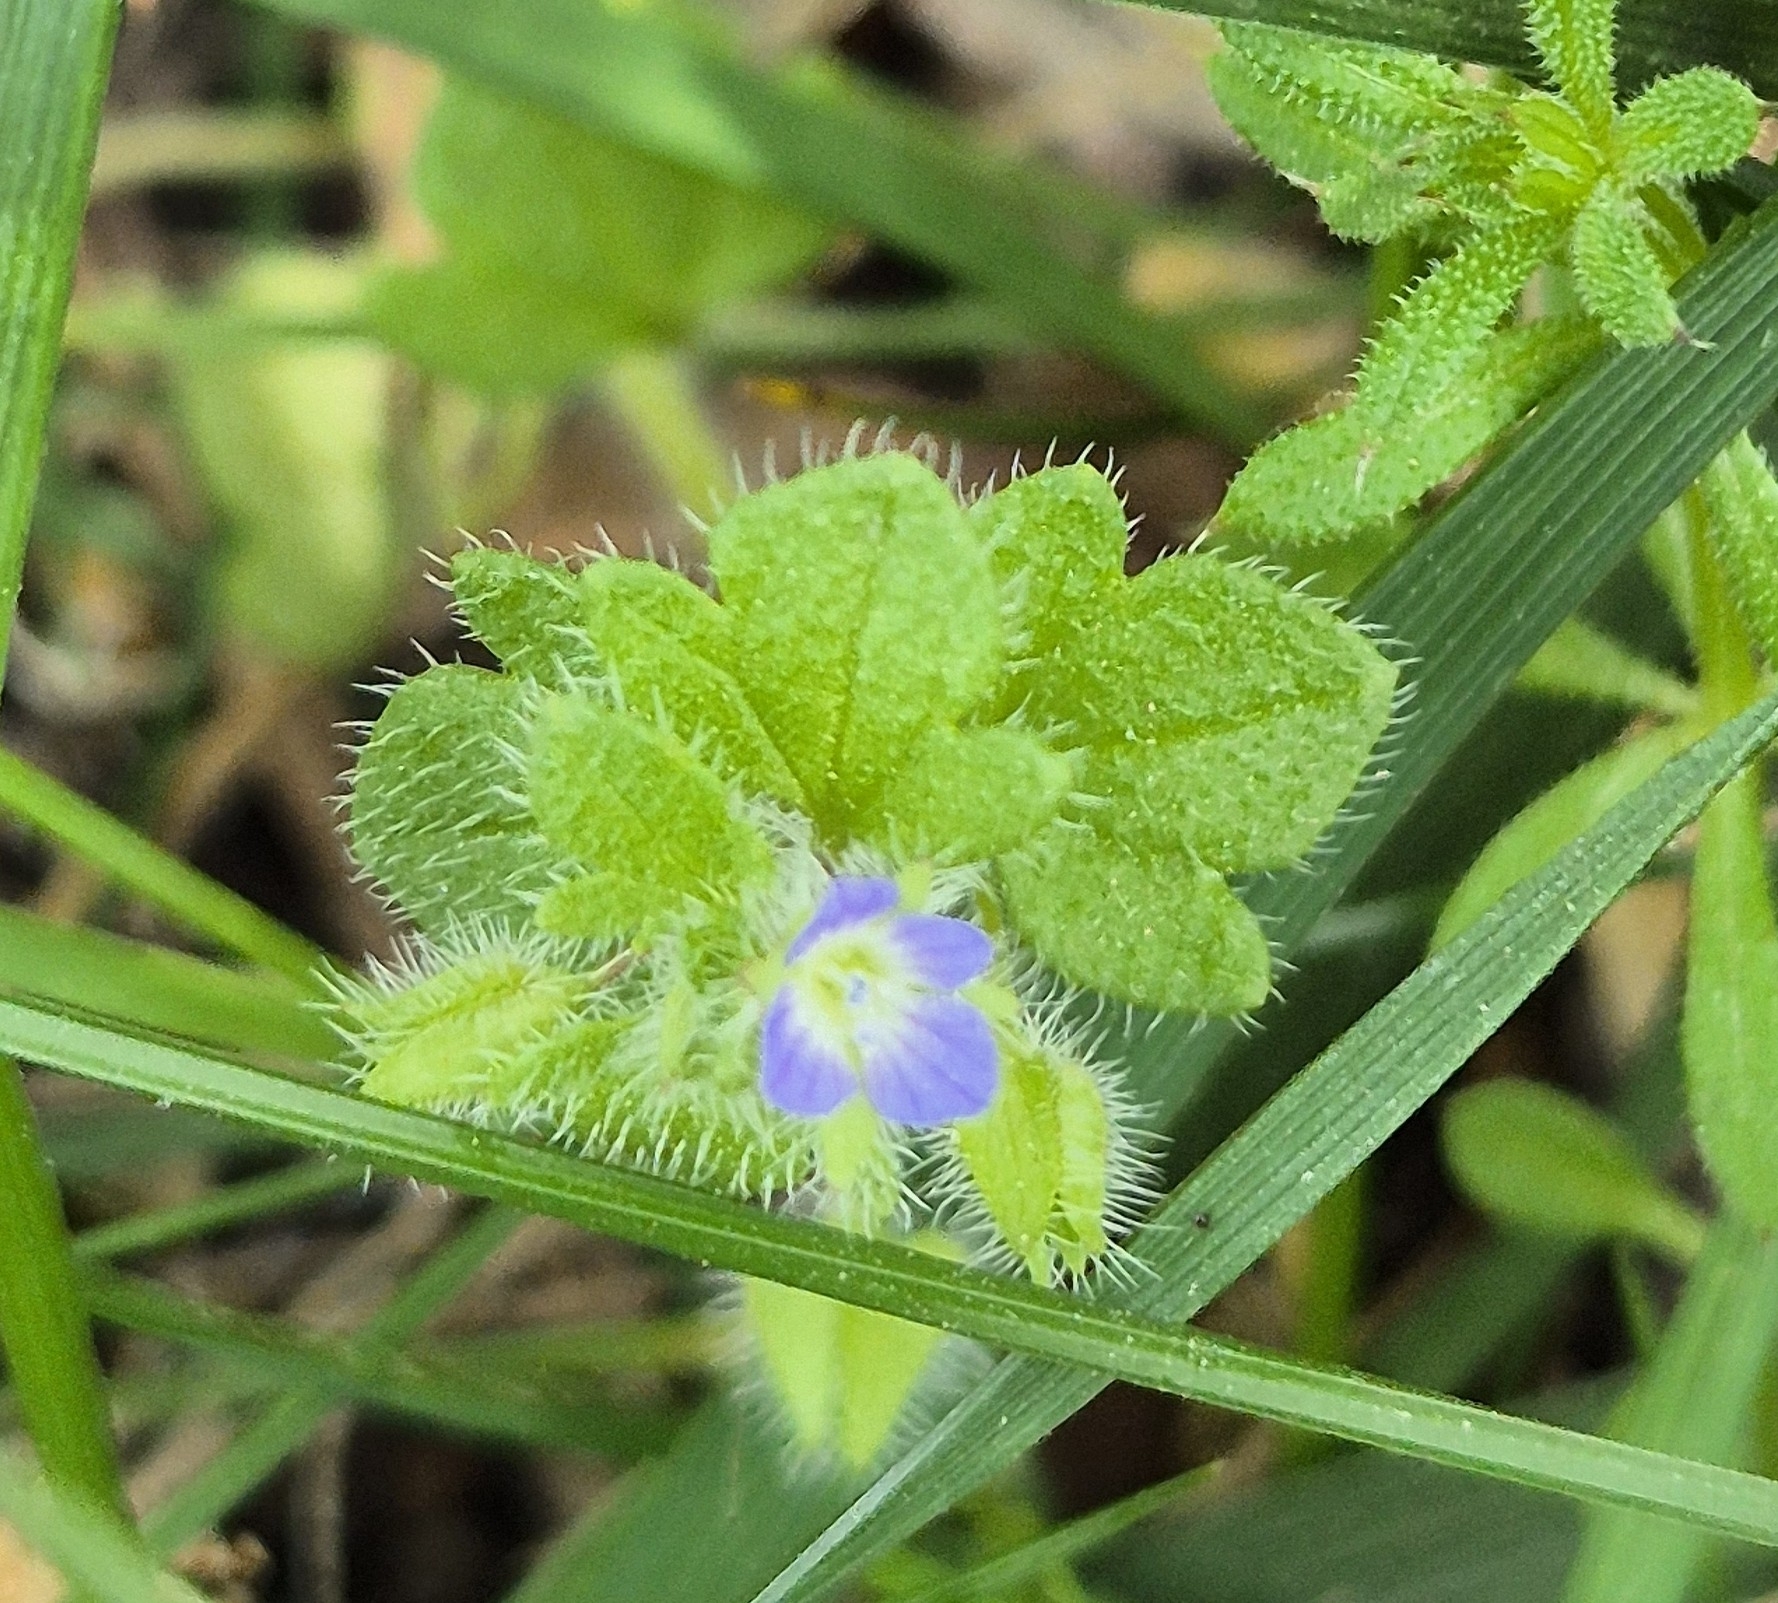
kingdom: Plantae
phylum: Tracheophyta
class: Magnoliopsida
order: Lamiales
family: Plantaginaceae
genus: Veronica
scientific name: Veronica hederifolia
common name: Ivy-leaved speedwell
